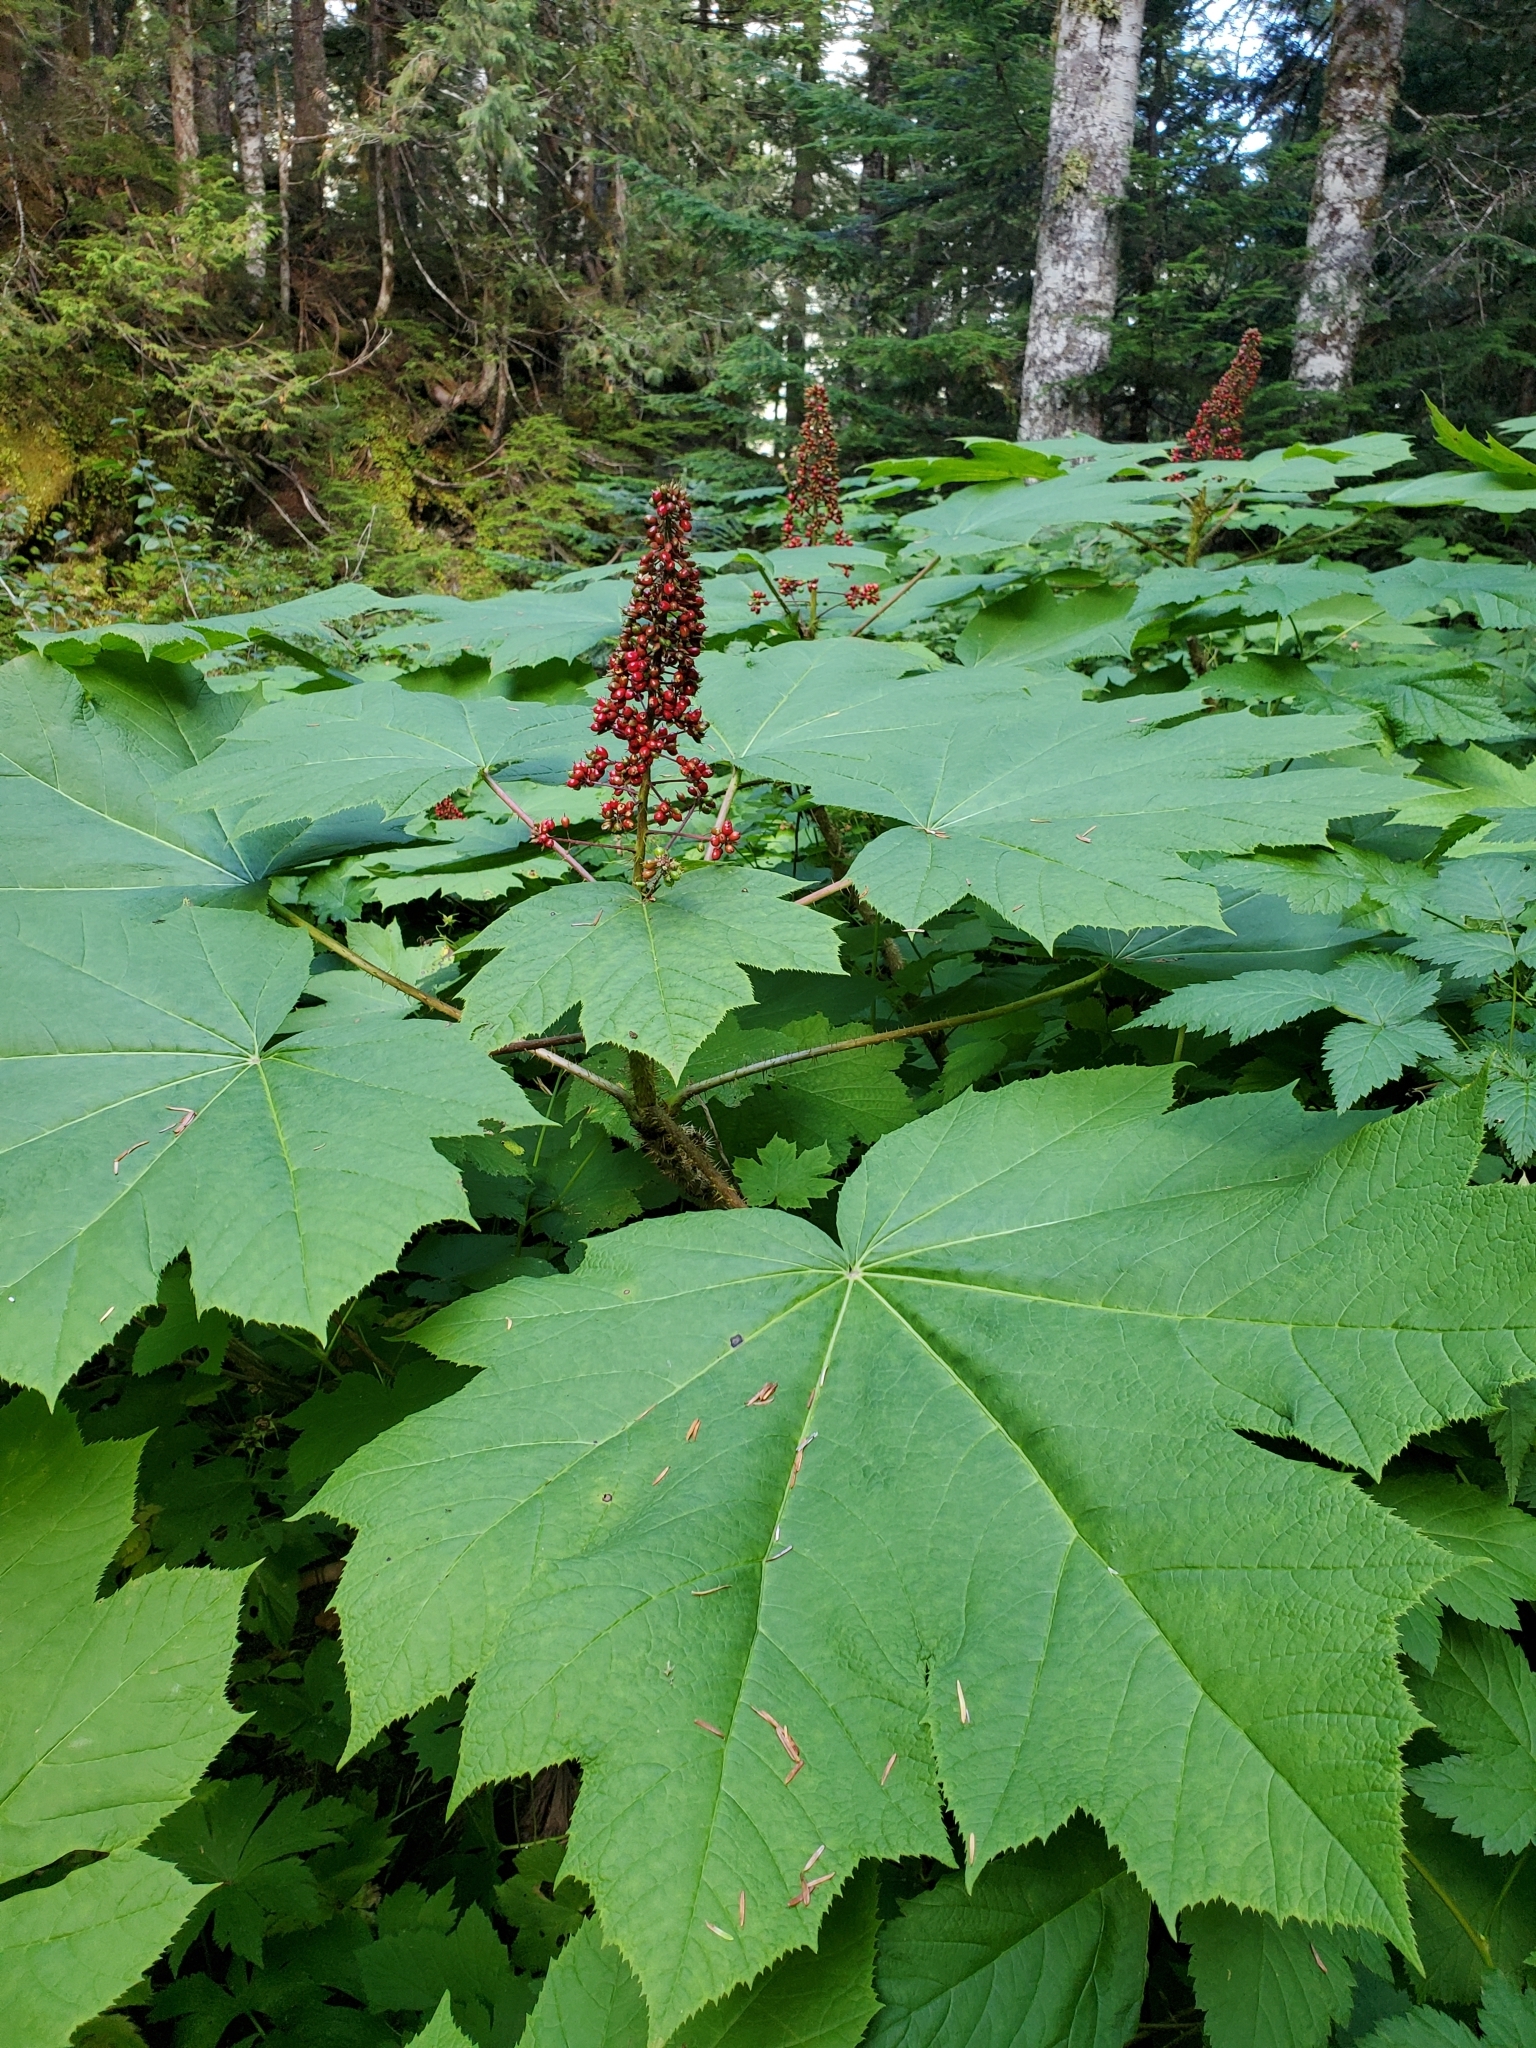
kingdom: Plantae
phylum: Tracheophyta
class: Magnoliopsida
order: Apiales
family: Araliaceae
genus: Oplopanax
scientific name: Oplopanax horridus
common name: Devil's walking-stick
